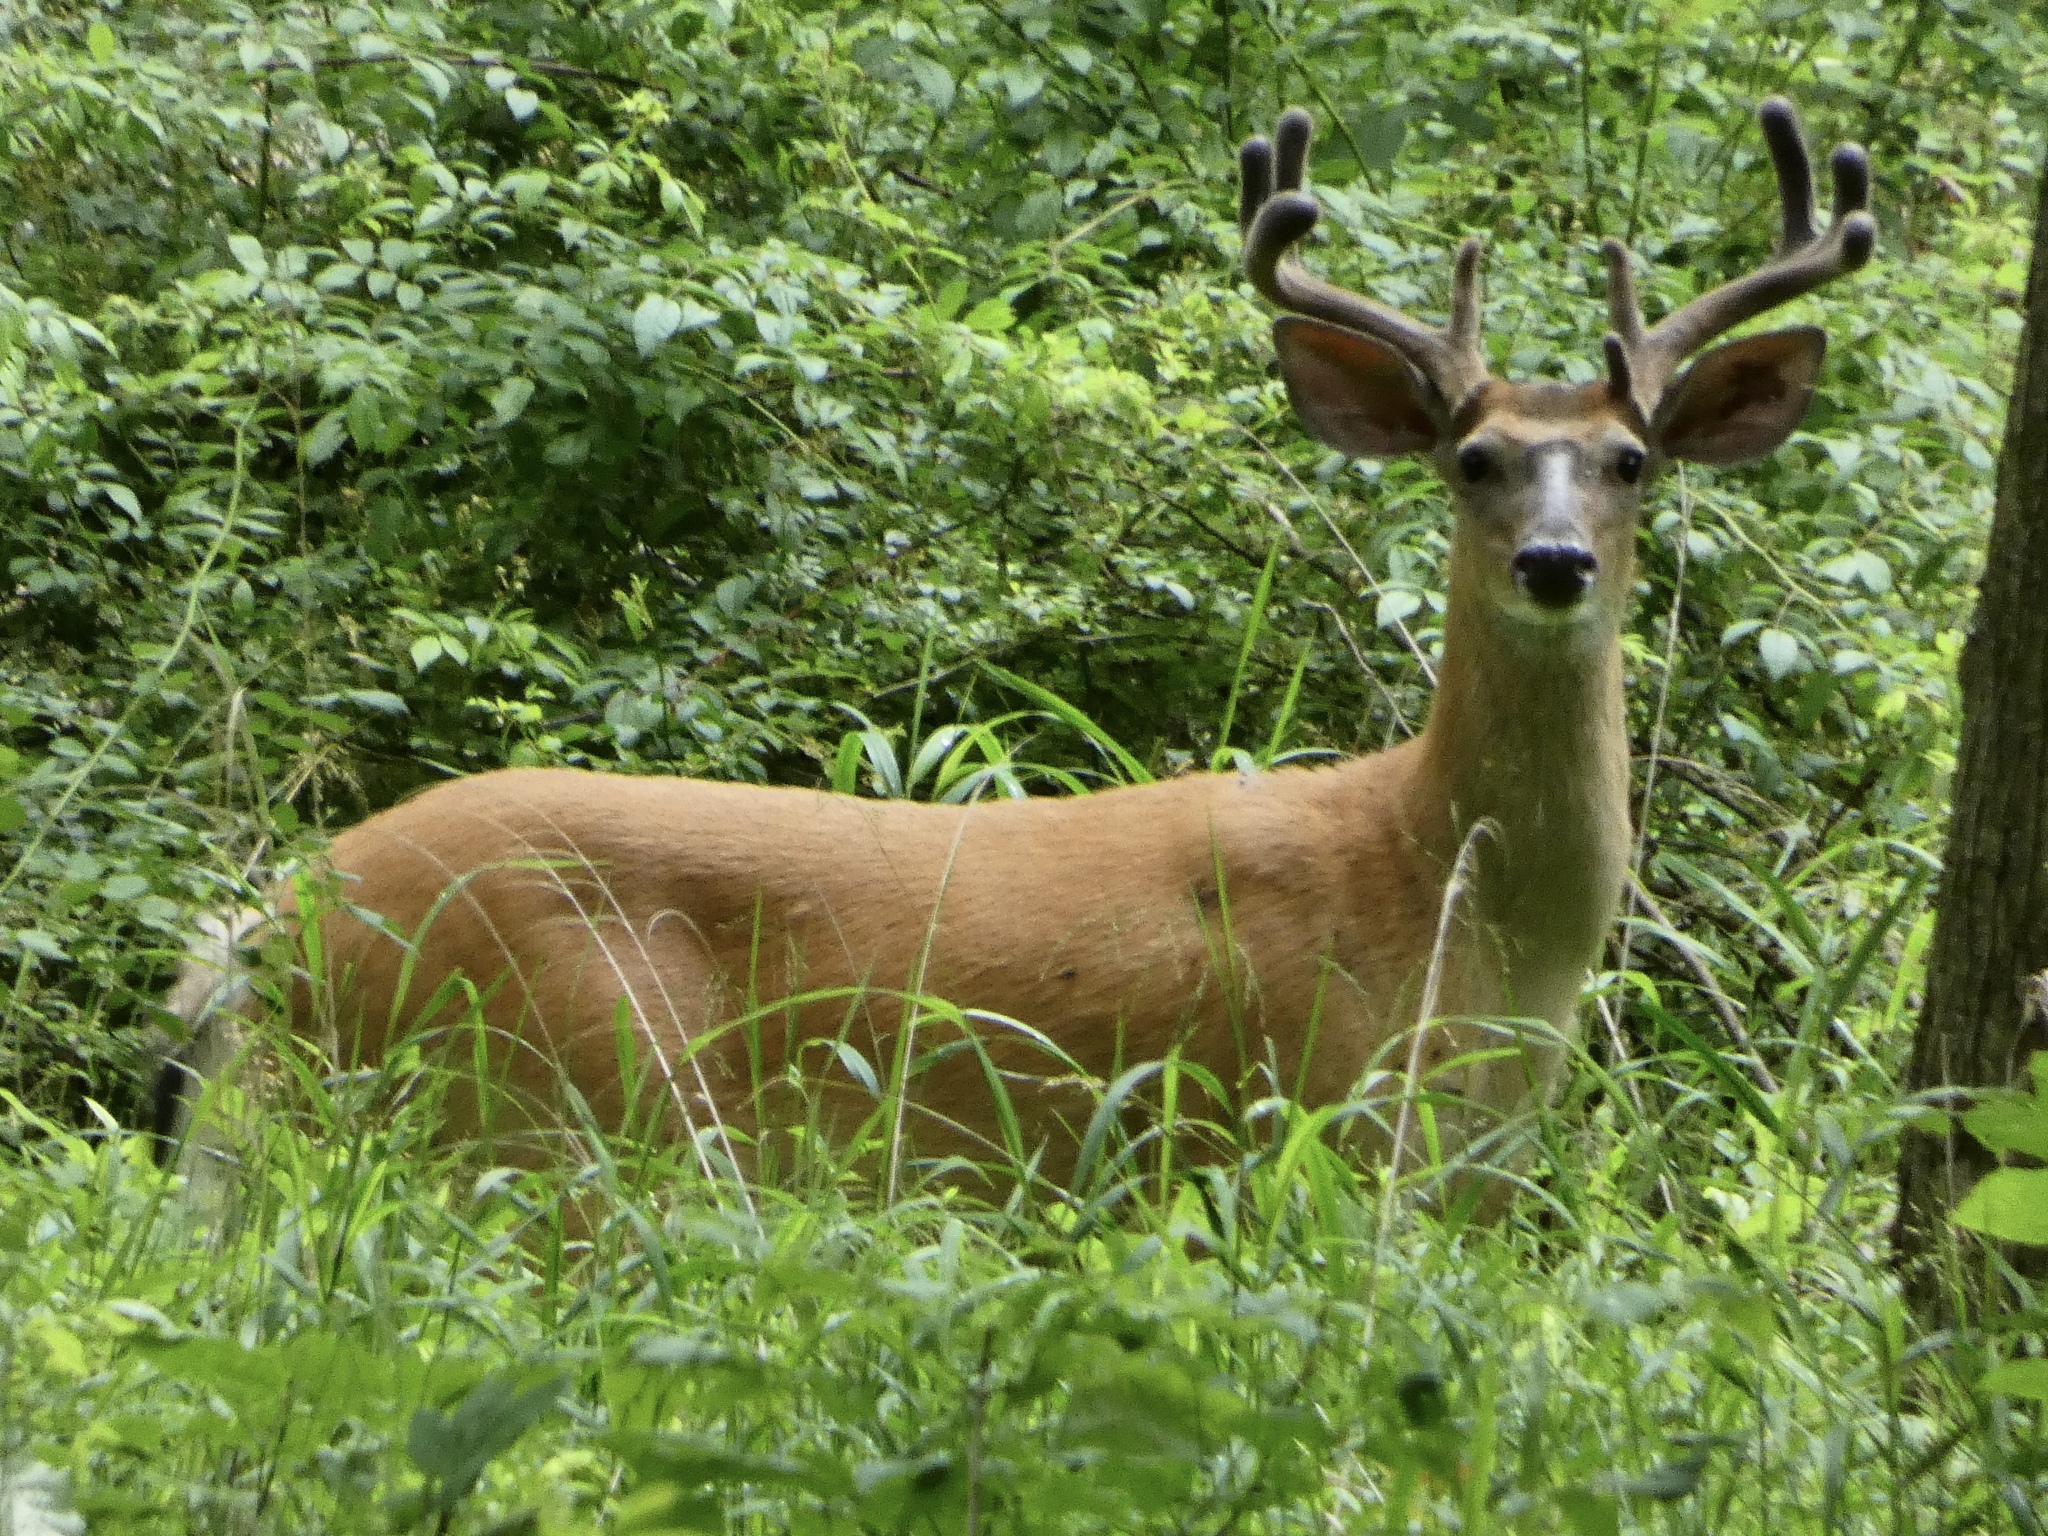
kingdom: Animalia
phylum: Chordata
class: Mammalia
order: Artiodactyla
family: Cervidae
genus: Odocoileus
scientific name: Odocoileus virginianus
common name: White-tailed deer
